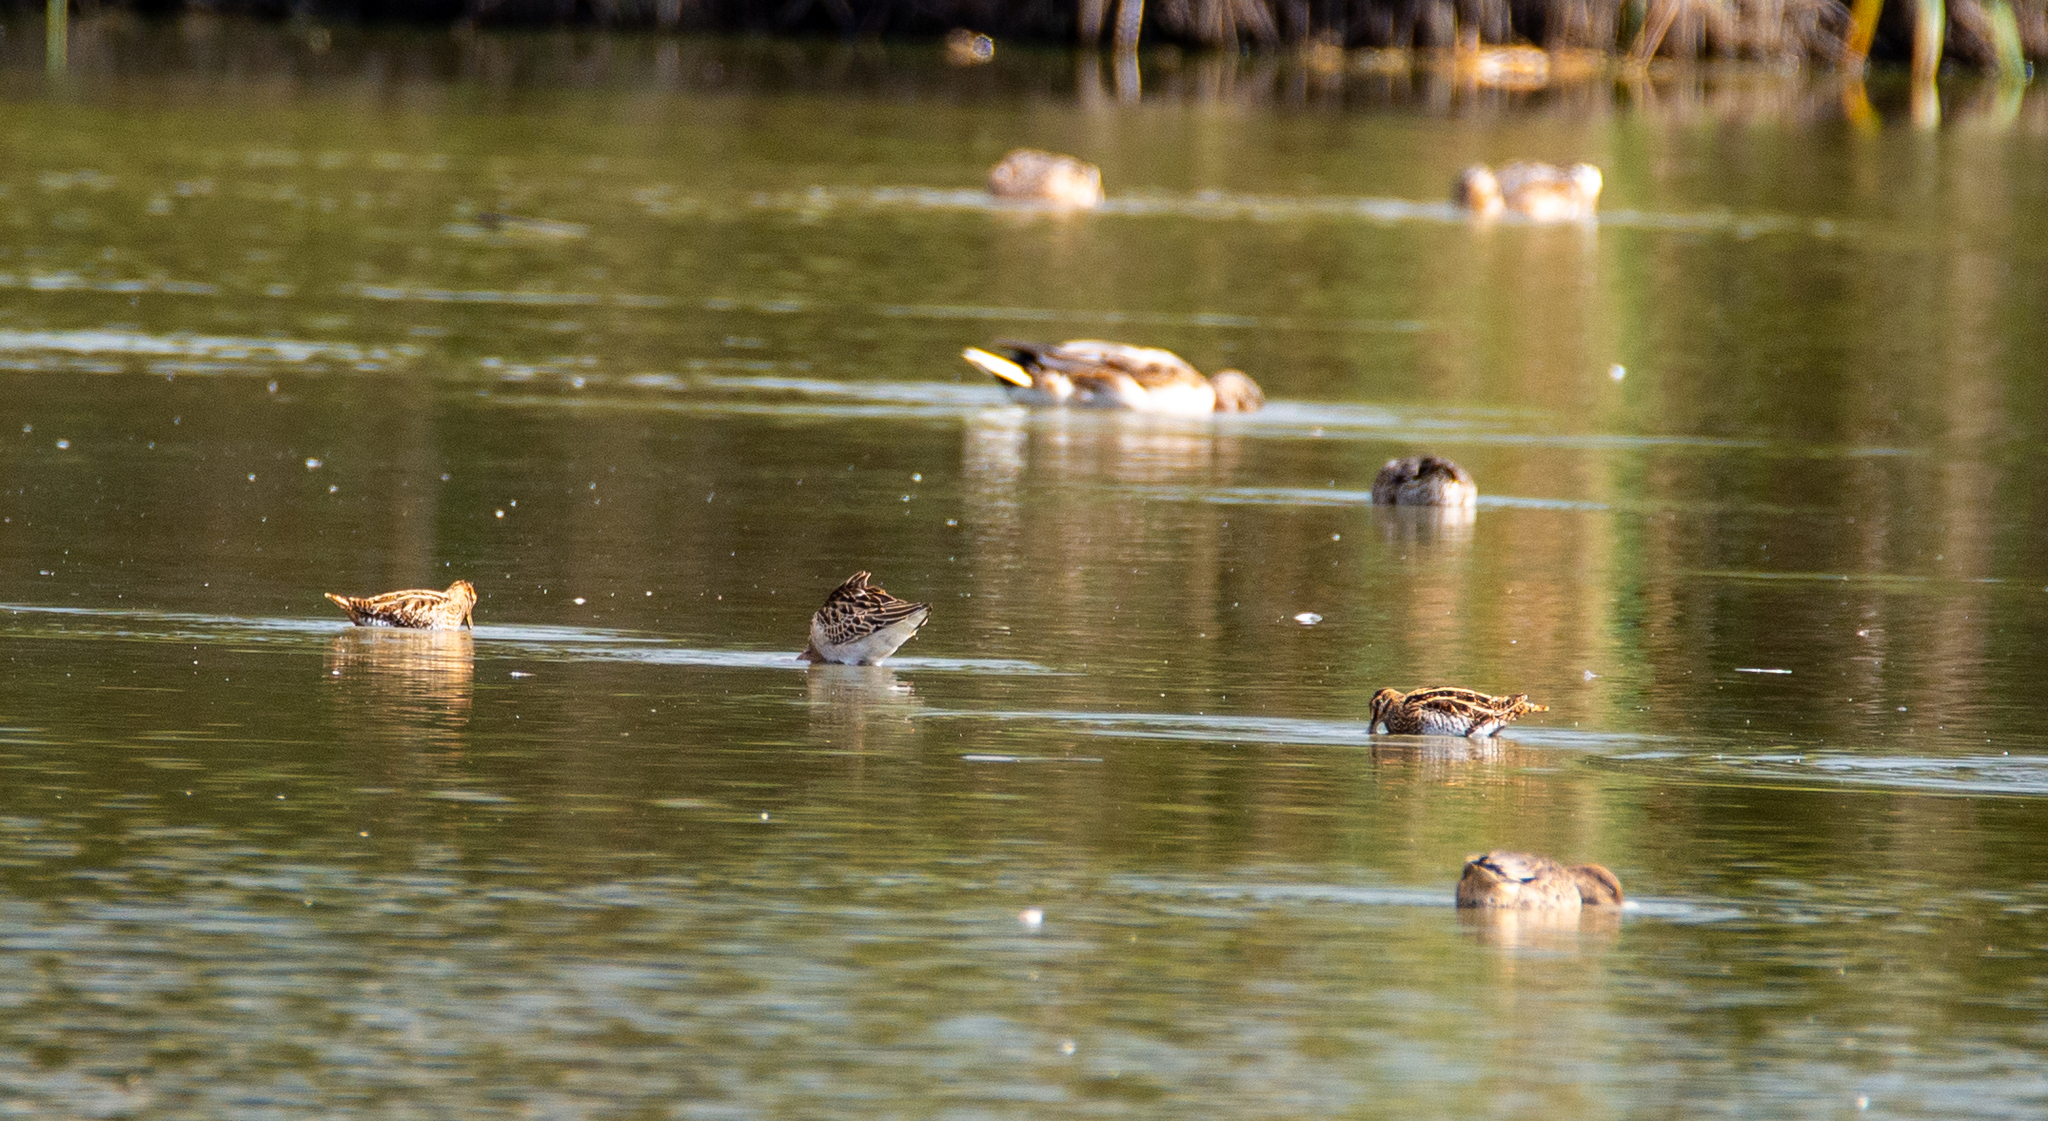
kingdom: Animalia
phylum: Chordata
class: Aves
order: Charadriiformes
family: Scolopacidae
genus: Gallinago
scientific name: Gallinago gallinago
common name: Common snipe
